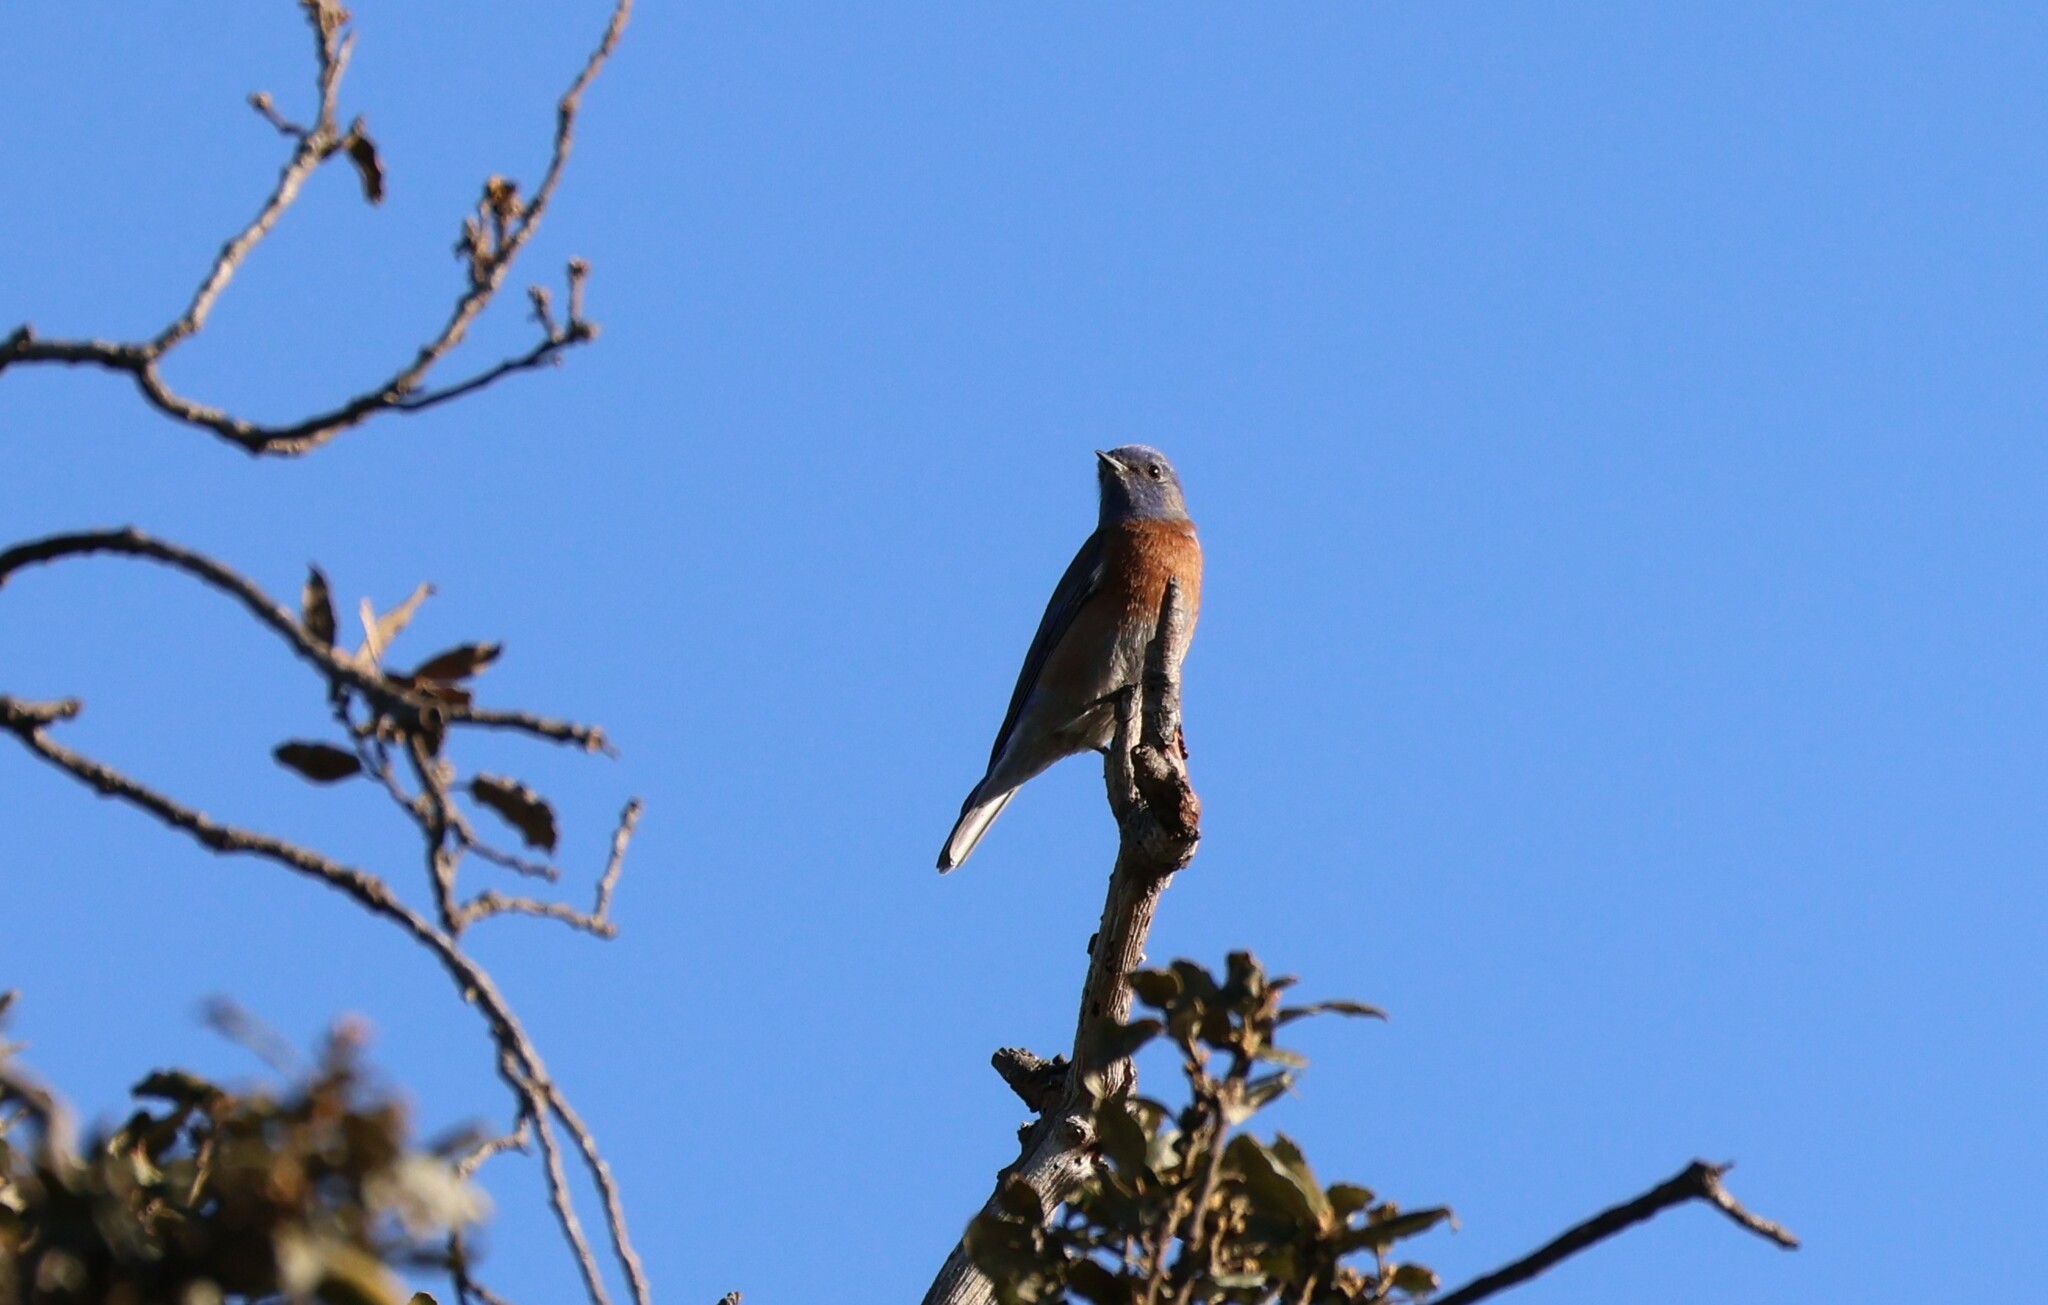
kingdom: Animalia
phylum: Chordata
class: Aves
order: Passeriformes
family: Turdidae
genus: Sialia
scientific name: Sialia mexicana
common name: Western bluebird
